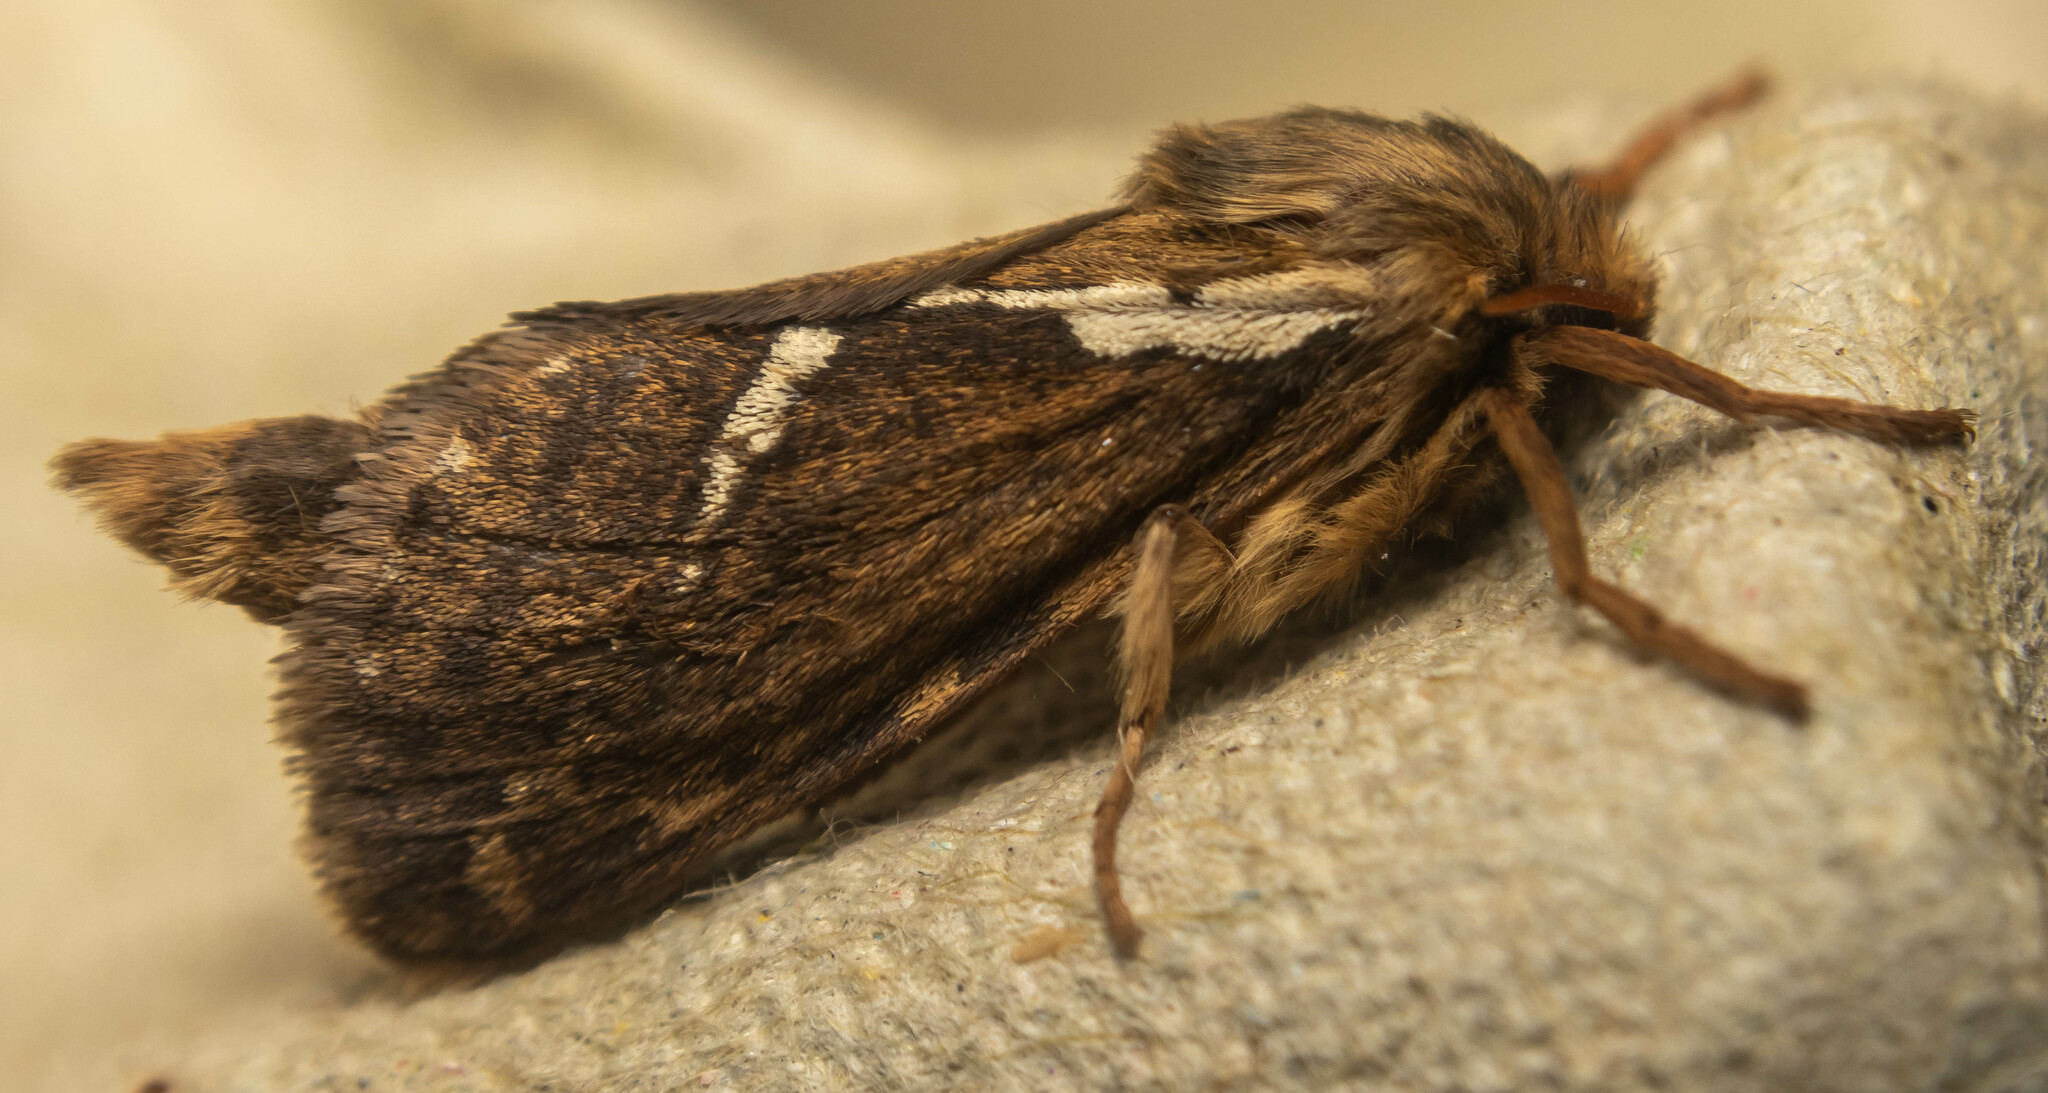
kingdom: Animalia
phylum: Arthropoda
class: Insecta
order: Lepidoptera
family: Hepialidae
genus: Korscheltellus
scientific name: Korscheltellus lupulina
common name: Common swift
